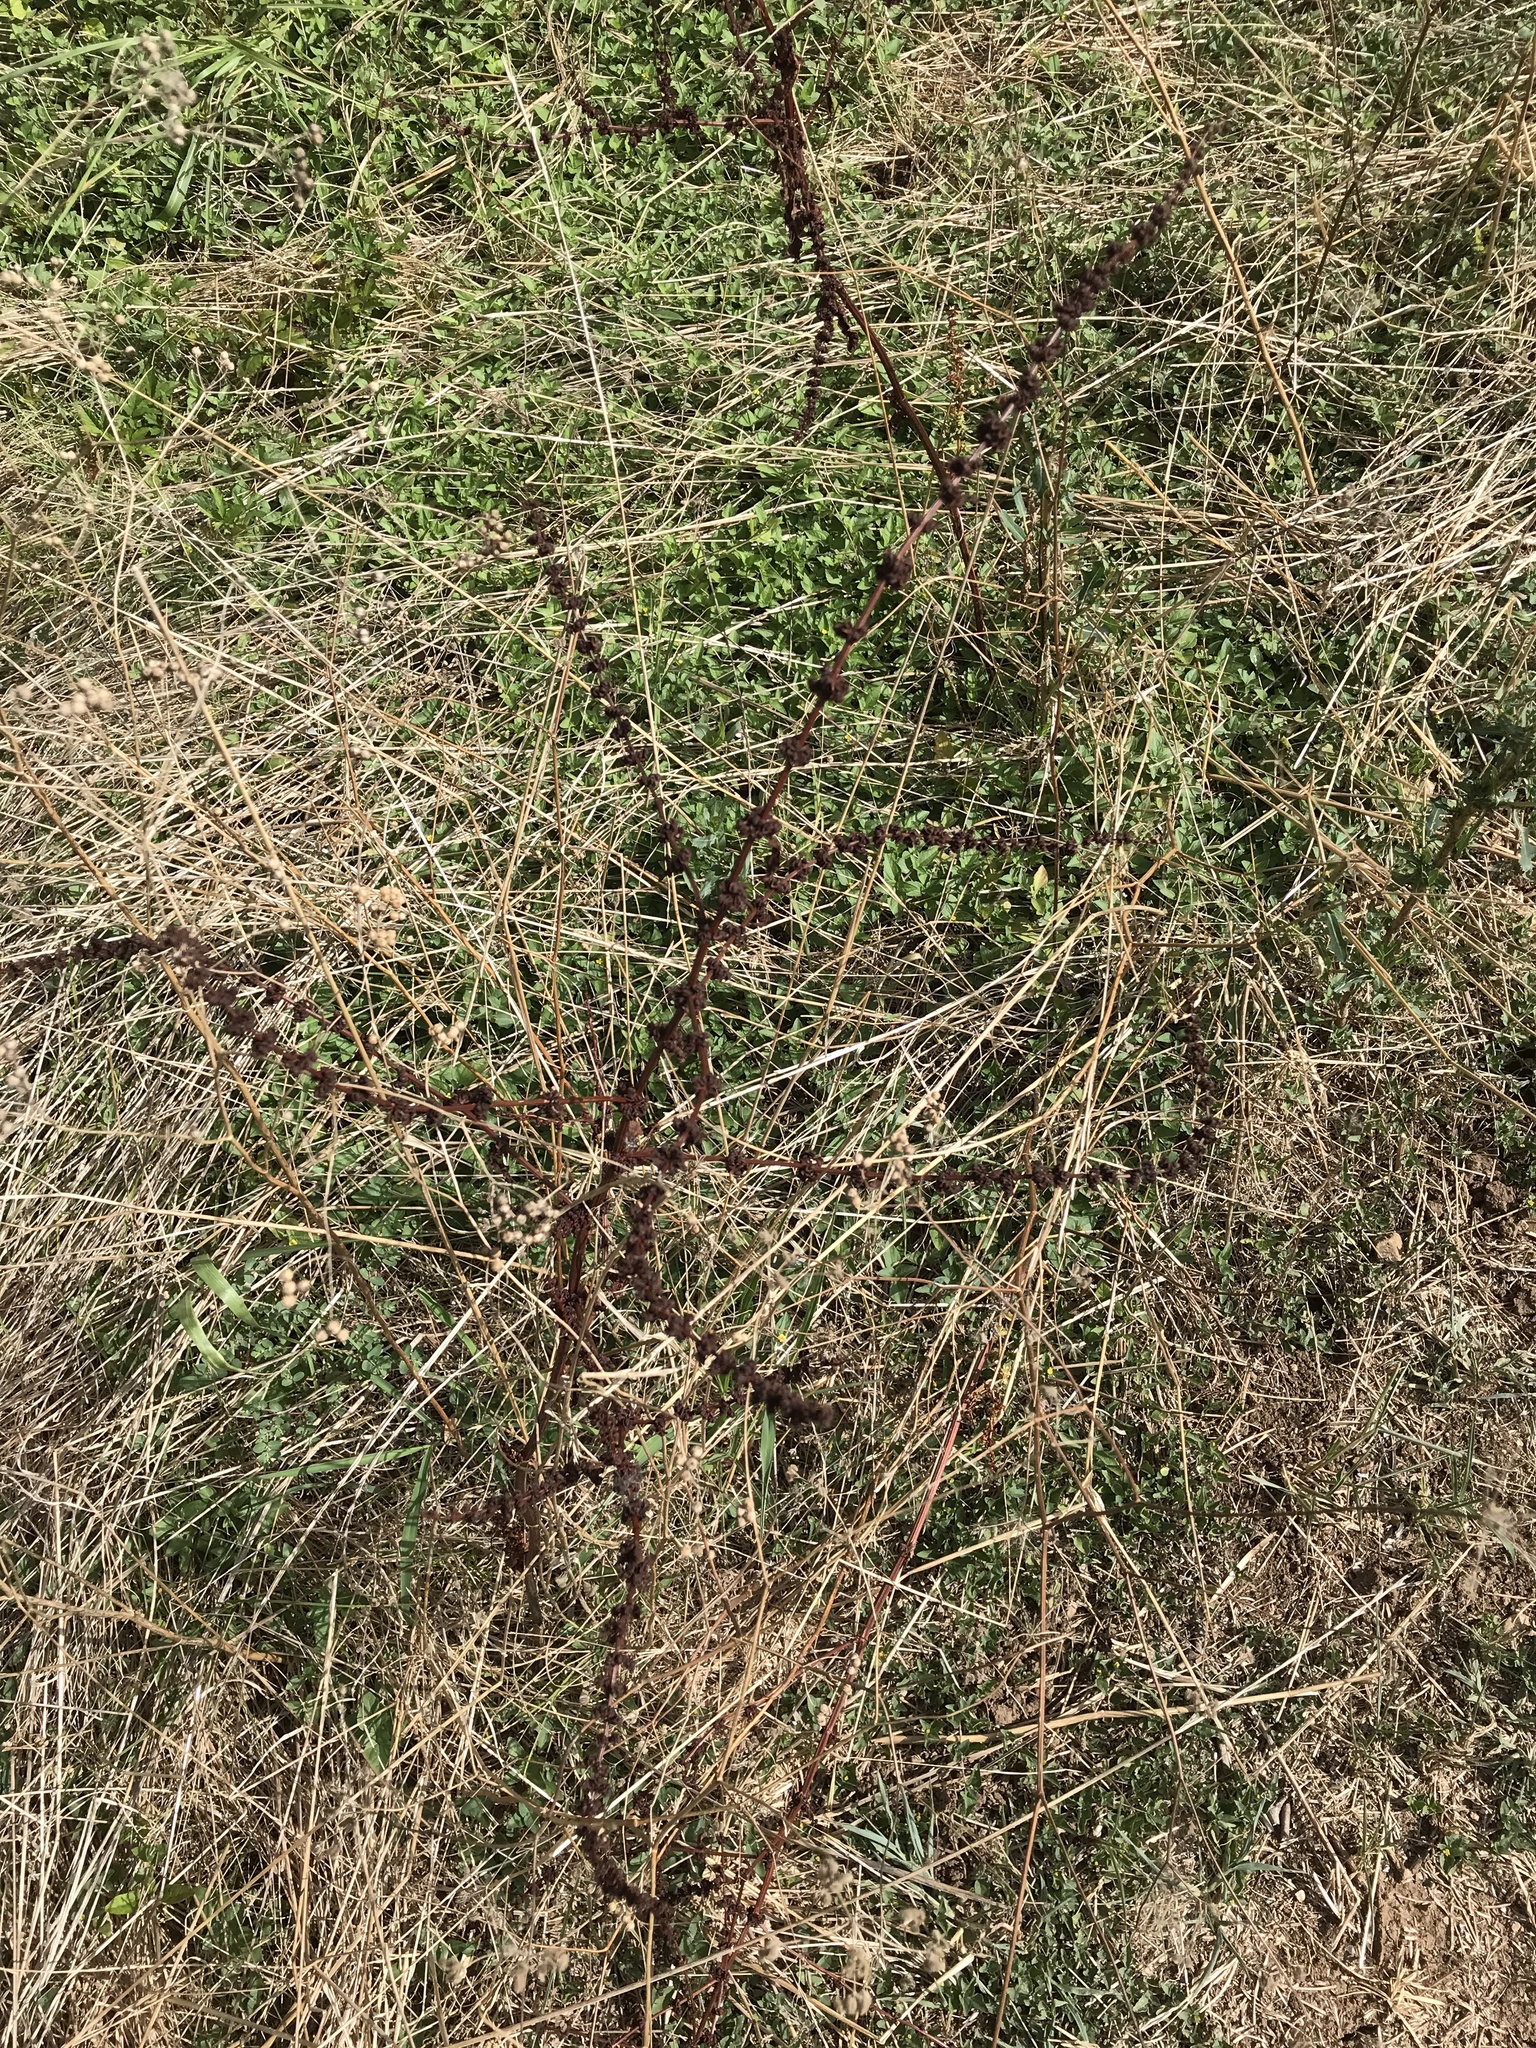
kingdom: Plantae
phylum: Tracheophyta
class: Magnoliopsida
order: Caryophyllales
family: Polygonaceae
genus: Rumex
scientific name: Rumex pulcher
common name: Fiddle dock
